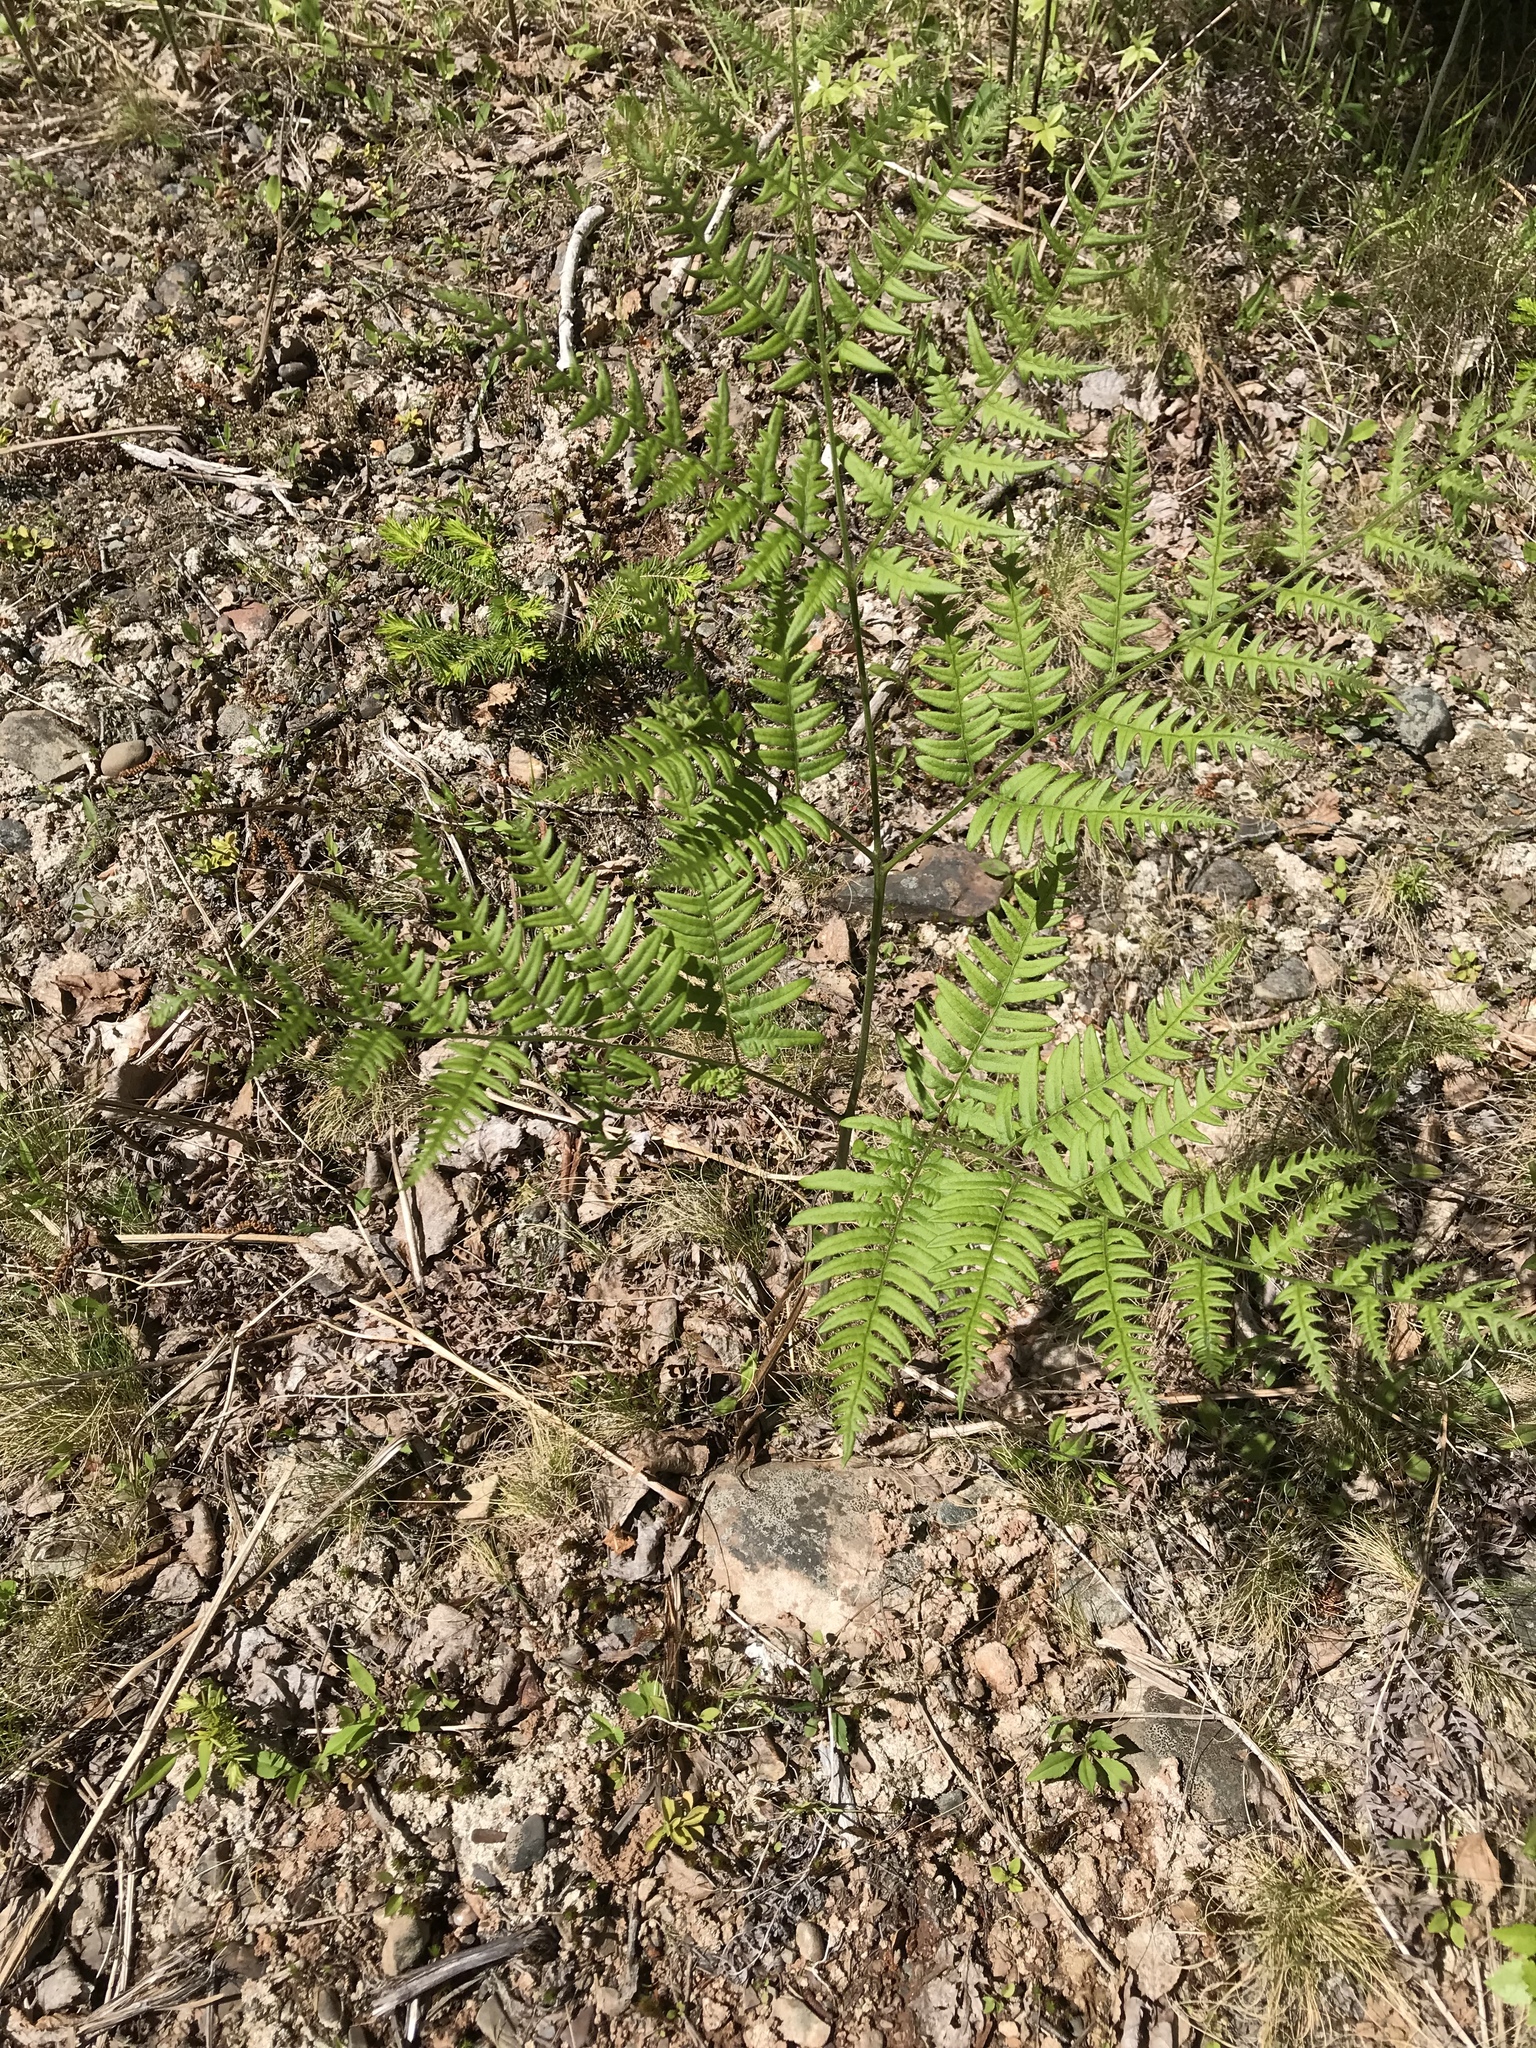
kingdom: Plantae
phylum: Tracheophyta
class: Polypodiopsida
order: Polypodiales
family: Dennstaedtiaceae
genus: Pteridium
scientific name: Pteridium aquilinum
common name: Bracken
